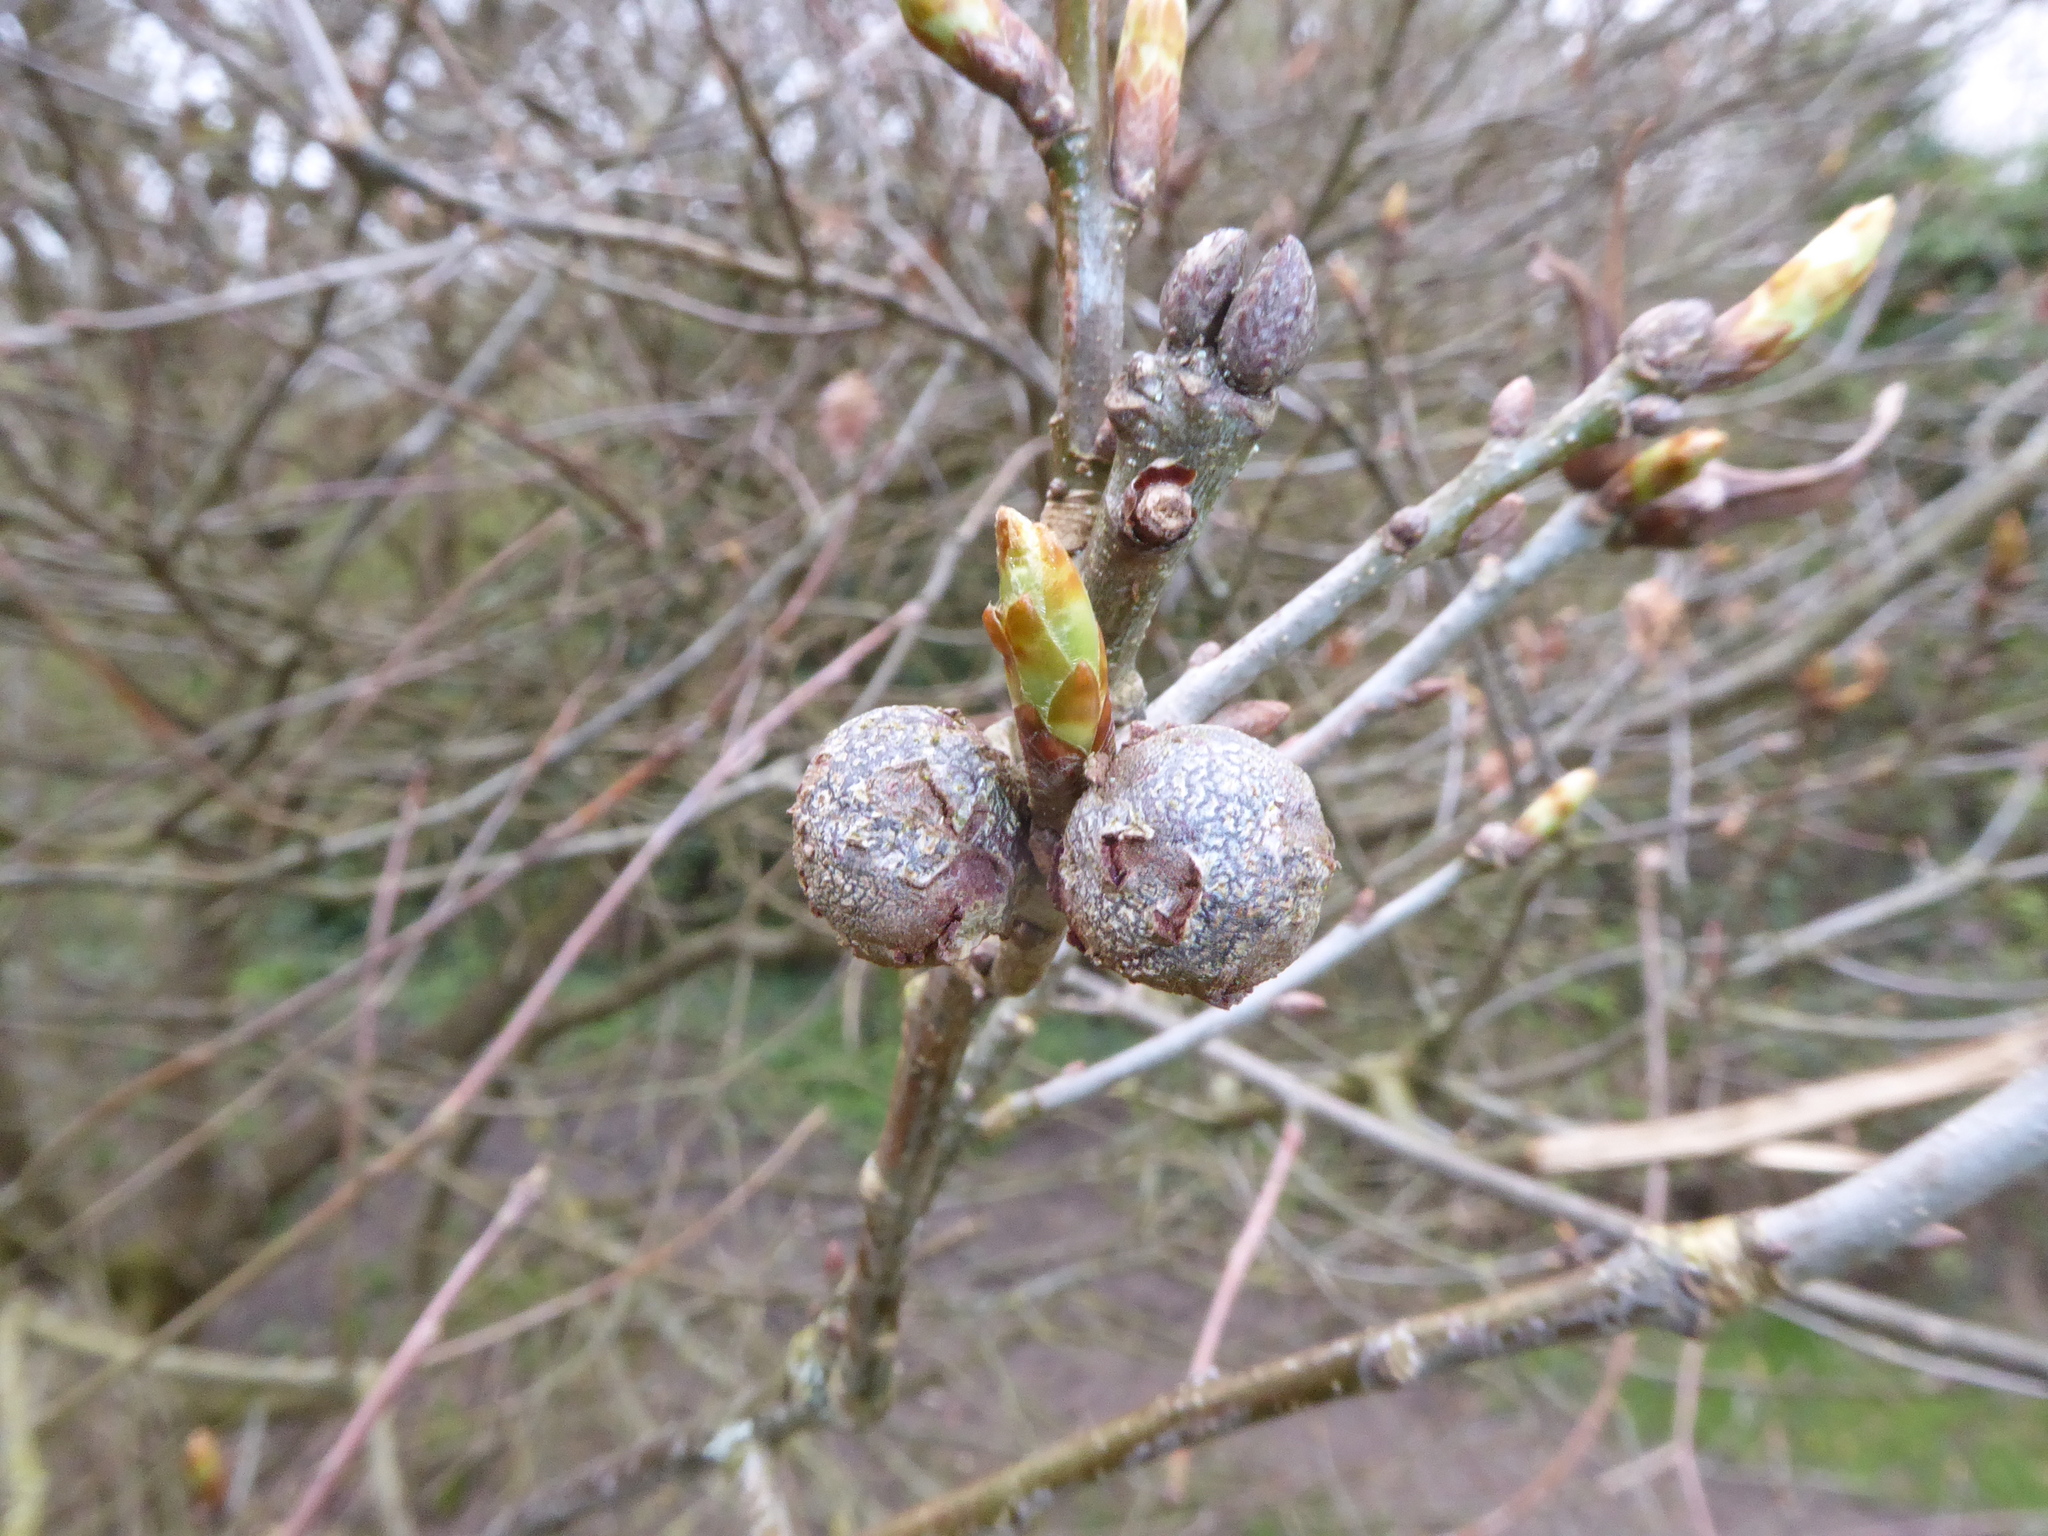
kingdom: Animalia
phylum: Arthropoda
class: Insecta
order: Hymenoptera
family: Cynipidae
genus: Andricus
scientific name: Andricus lignicolus
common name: Cola-nut gall
